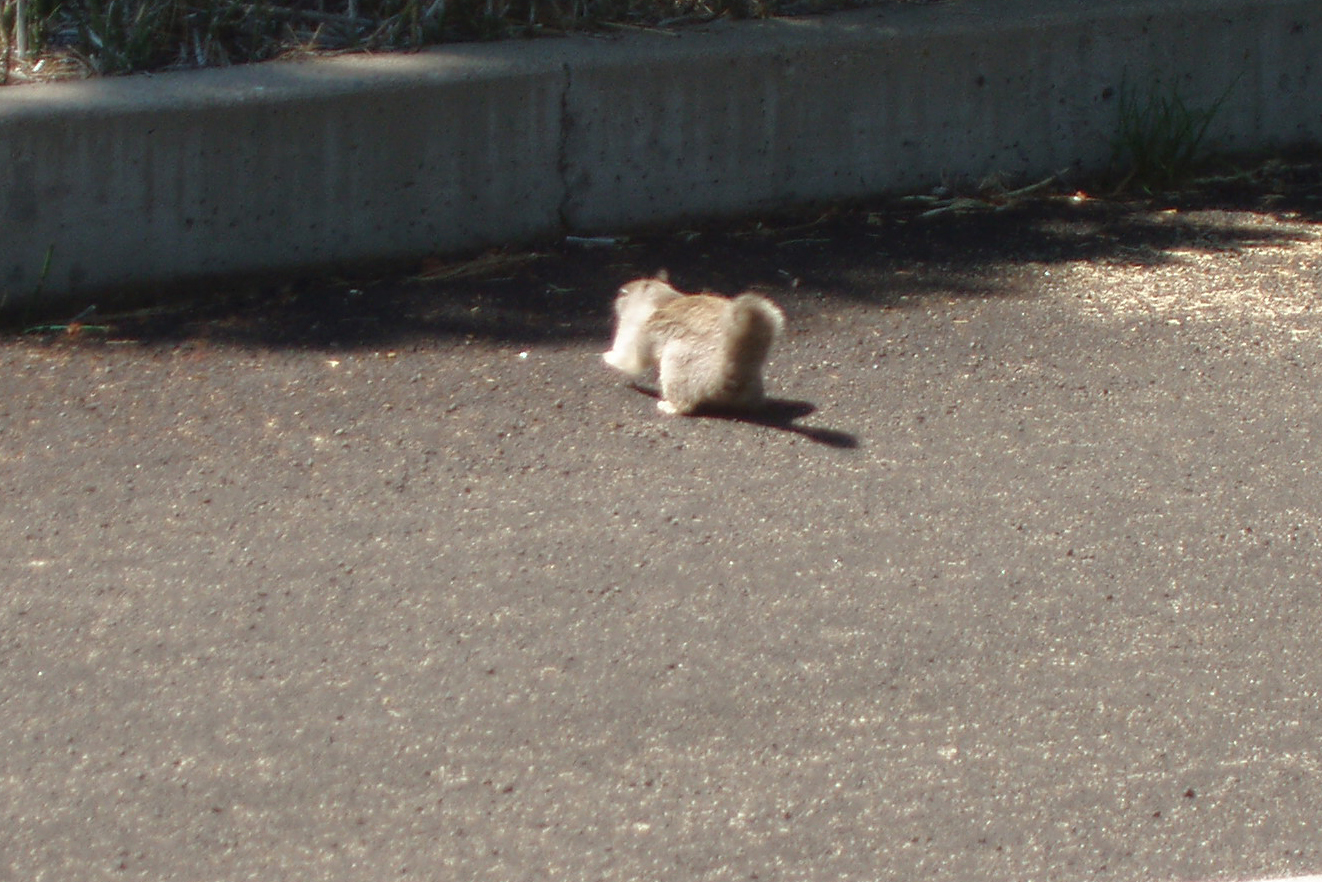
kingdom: Animalia
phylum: Chordata
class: Mammalia
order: Rodentia
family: Sciuridae
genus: Otospermophilus
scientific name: Otospermophilus beecheyi
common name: California ground squirrel
